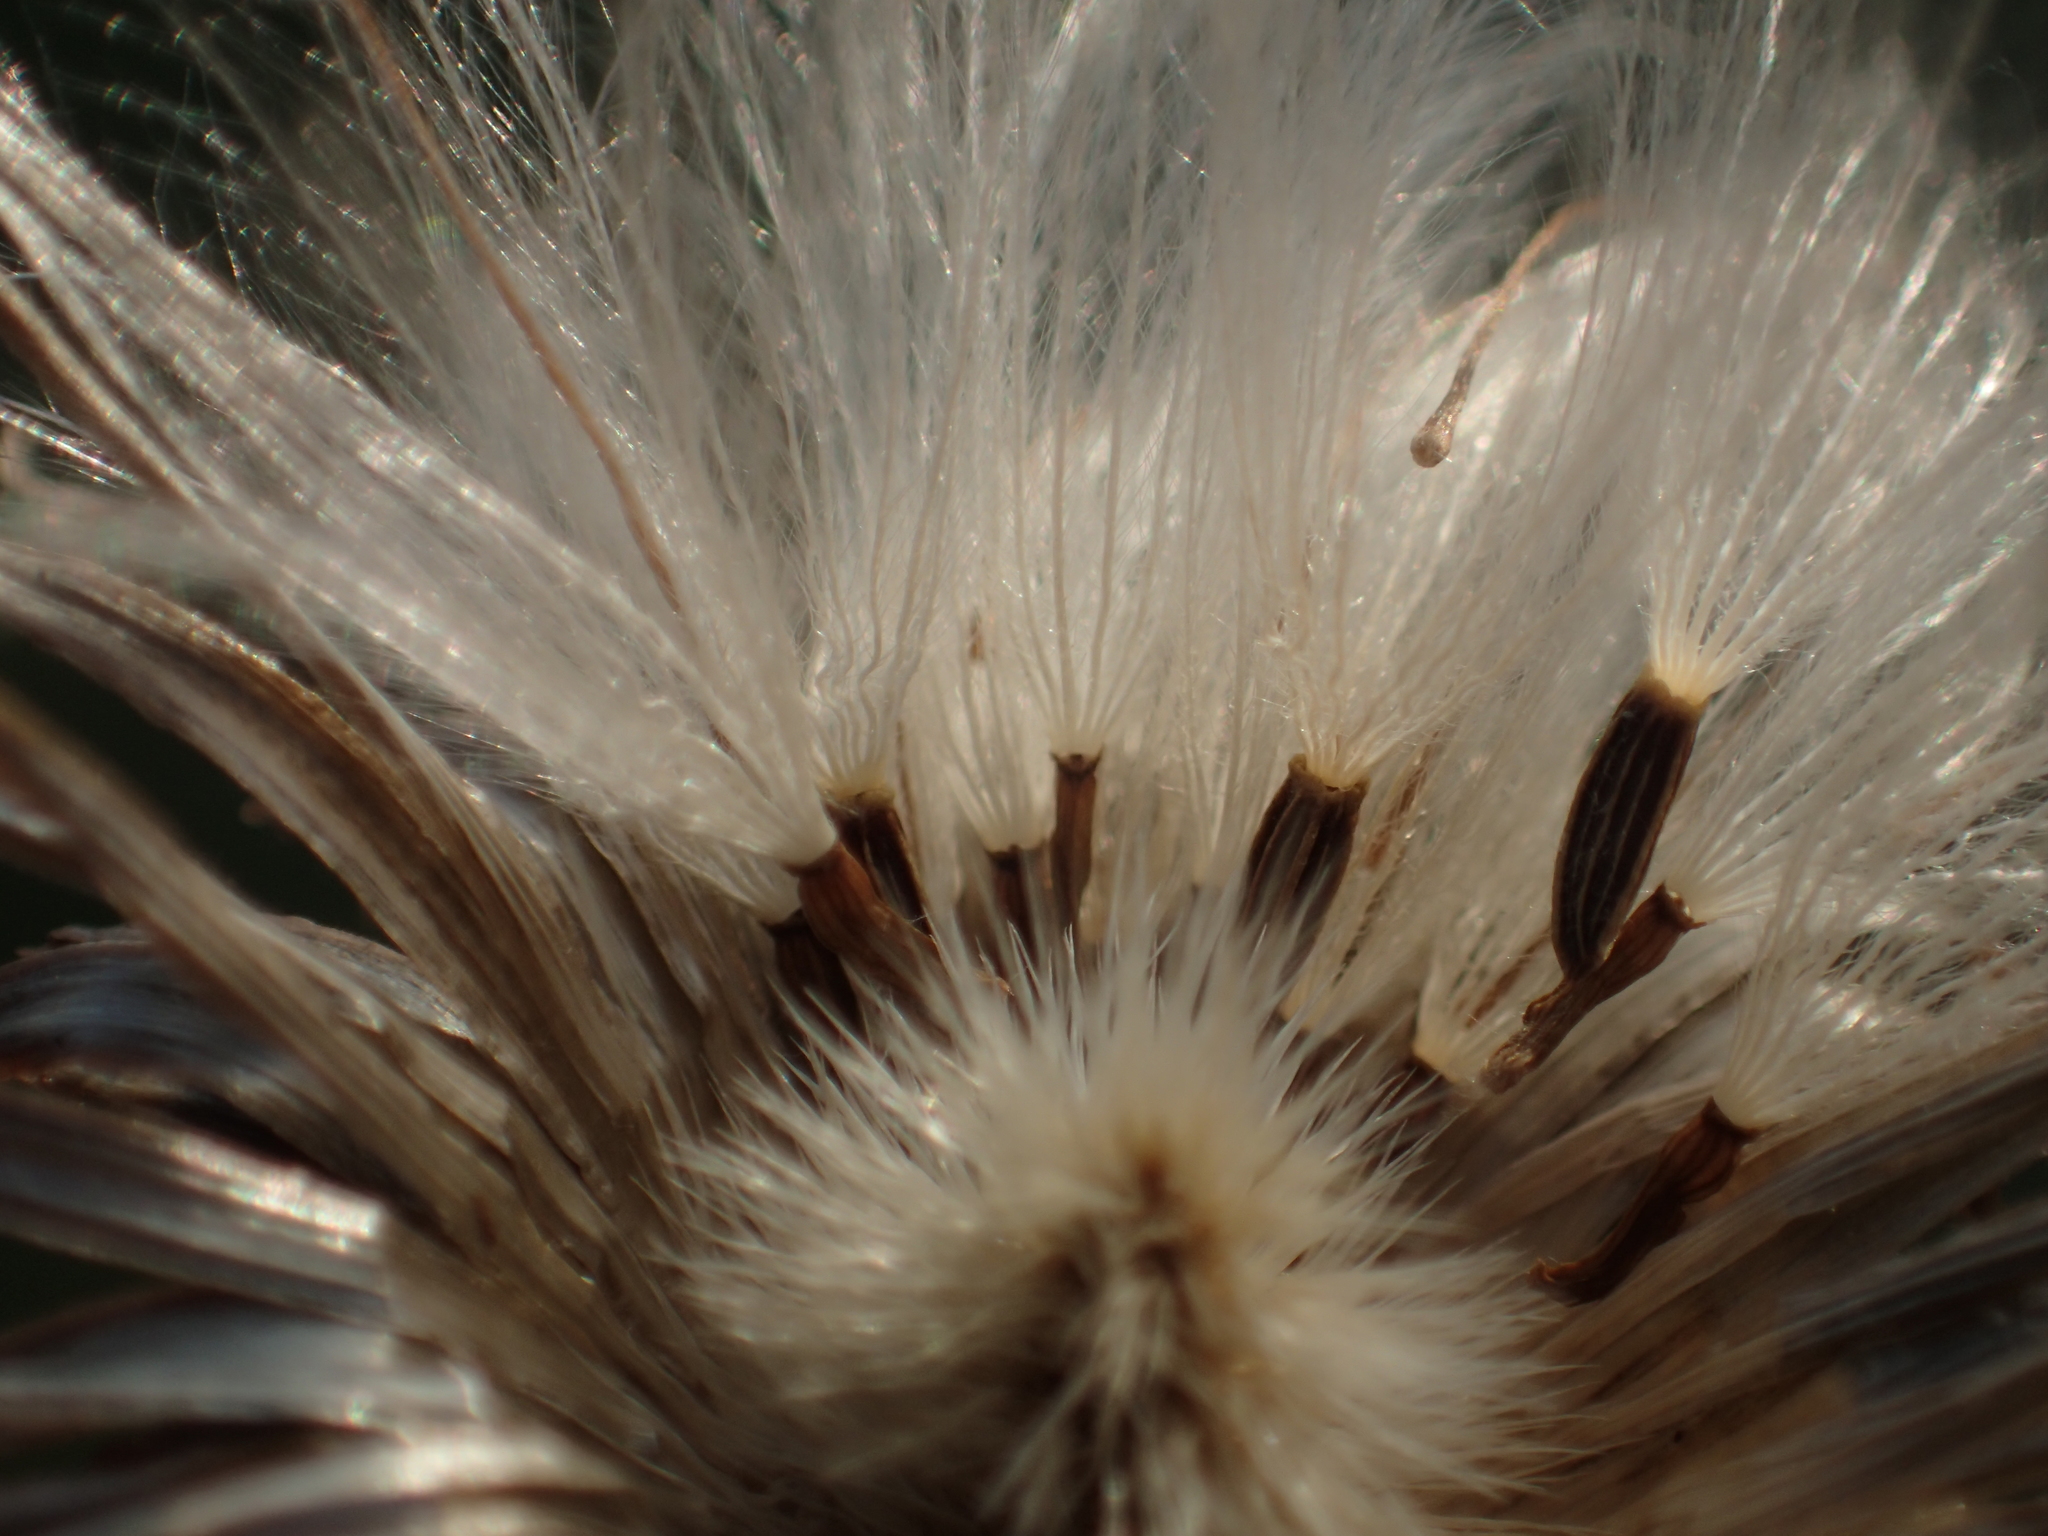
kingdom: Plantae
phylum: Tracheophyta
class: Magnoliopsida
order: Asterales
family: Asteraceae
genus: Saussurea
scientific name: Saussurea lyrata
